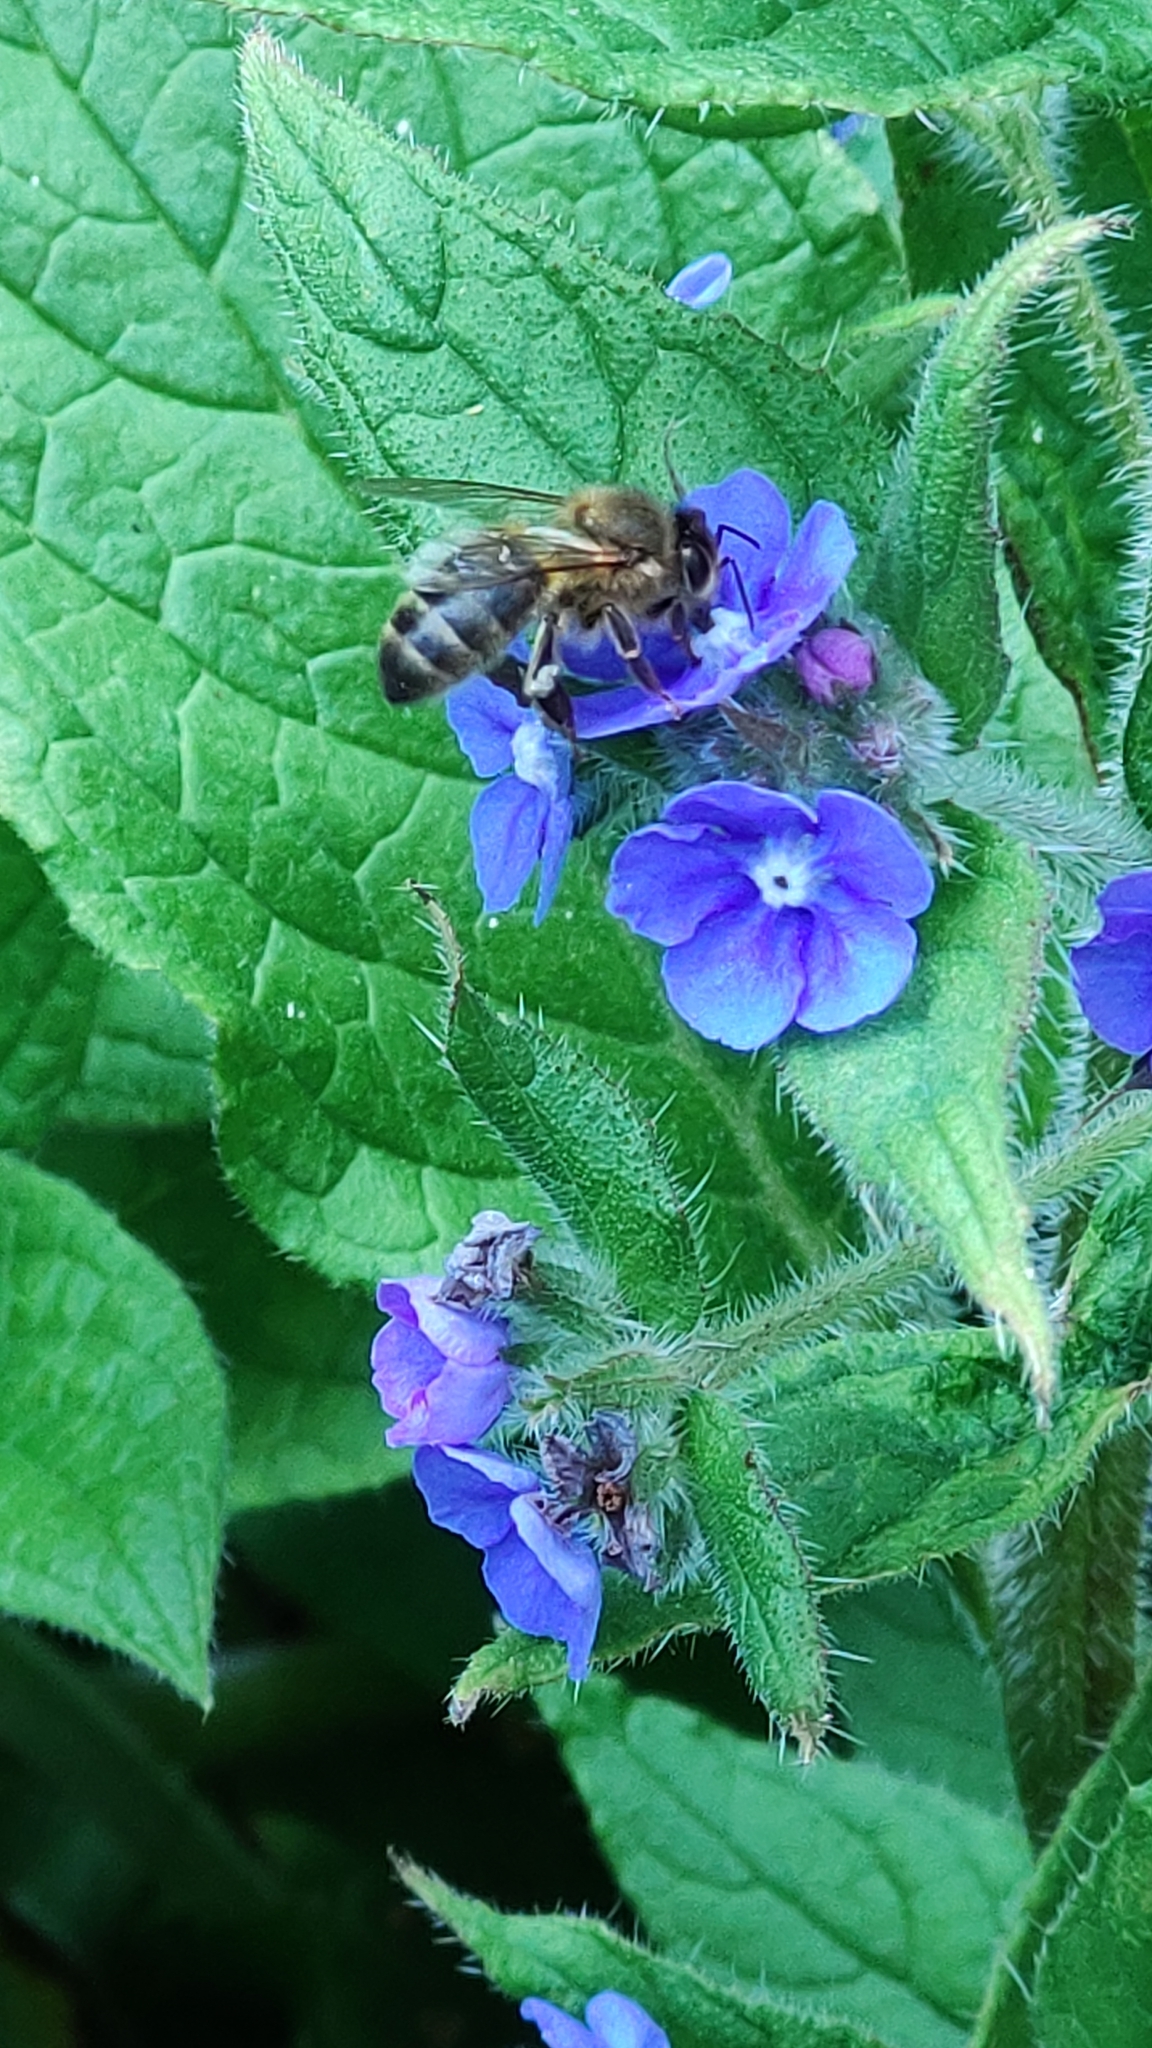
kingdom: Animalia
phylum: Arthropoda
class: Insecta
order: Hymenoptera
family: Apidae
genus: Apis
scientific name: Apis mellifera
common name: Honey bee
